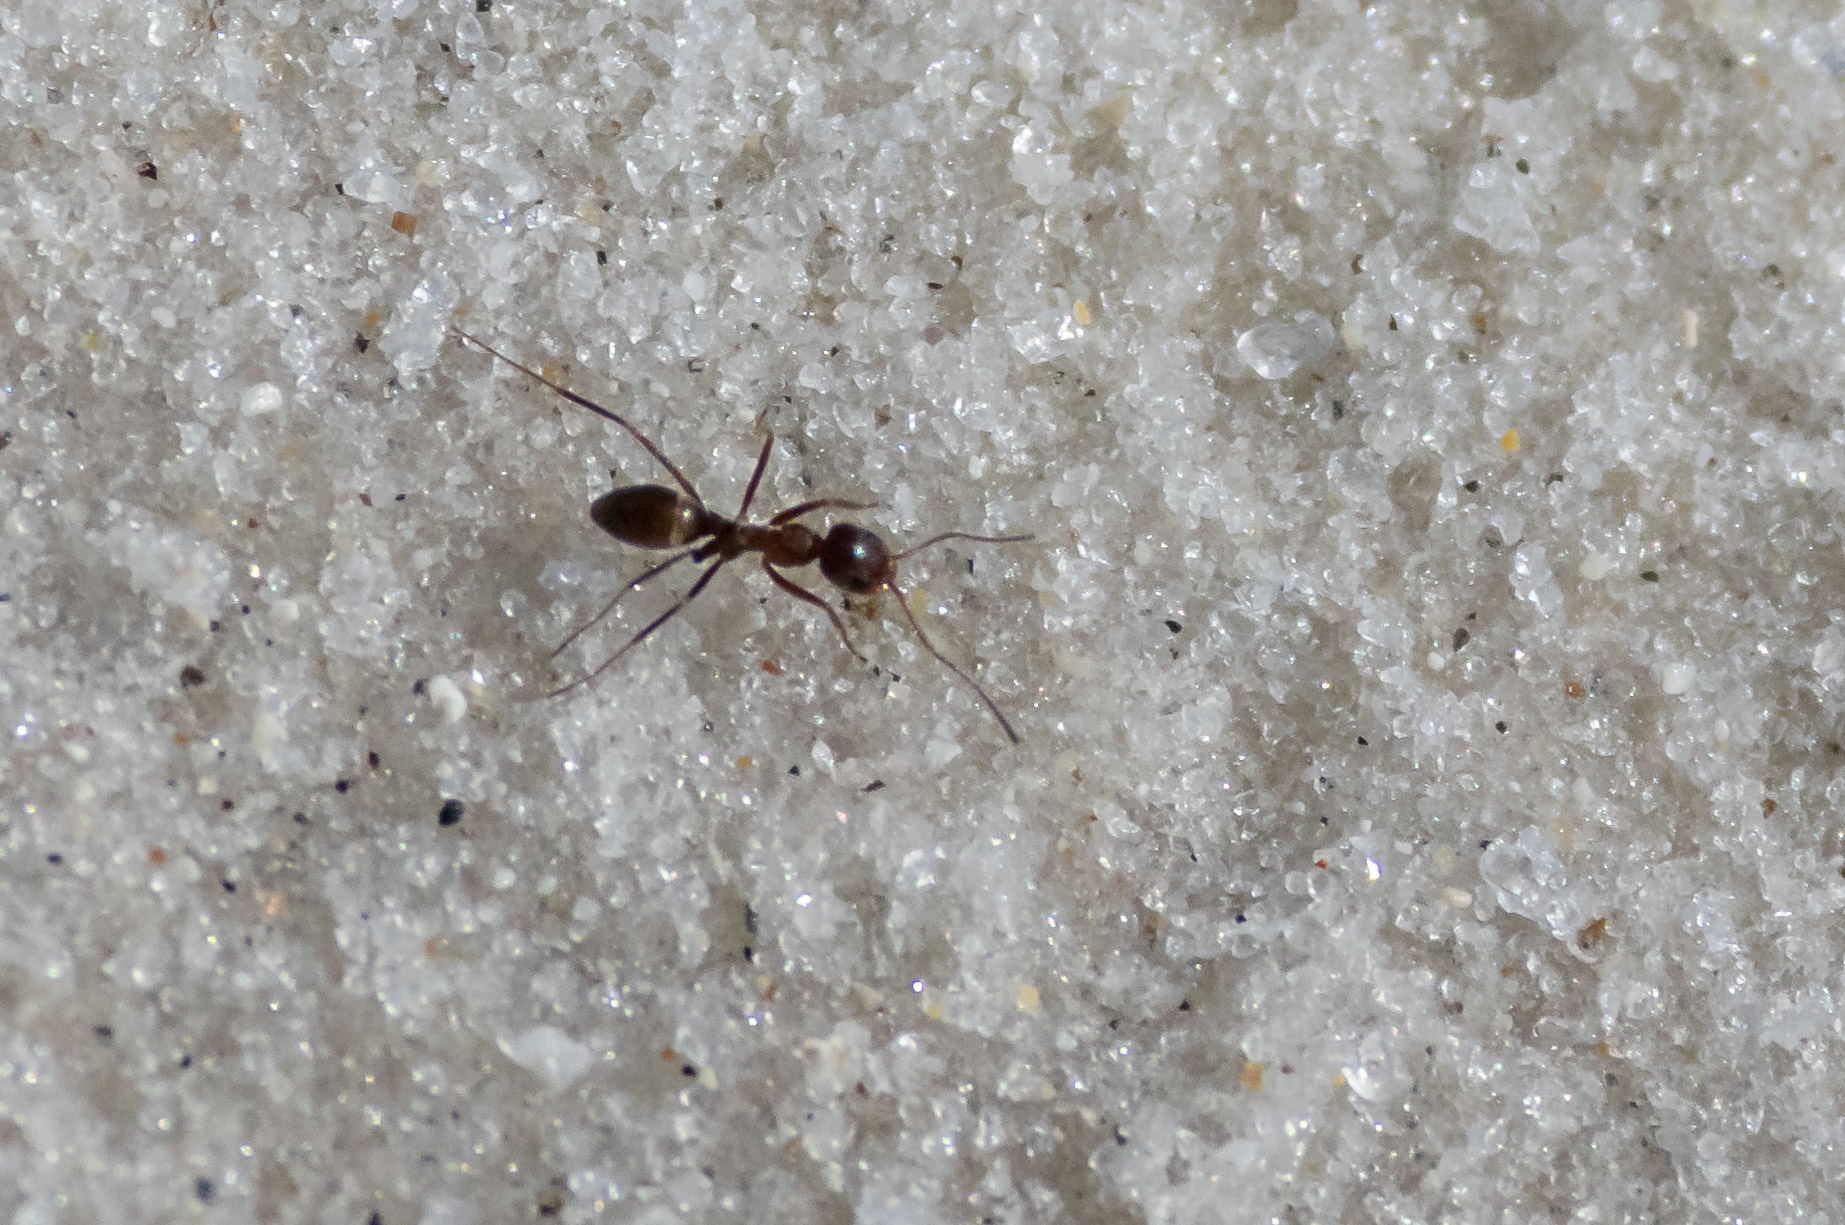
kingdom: Animalia
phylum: Arthropoda
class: Insecta
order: Hymenoptera
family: Formicidae
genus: Dorymyrmex
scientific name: Dorymyrmex bureni
